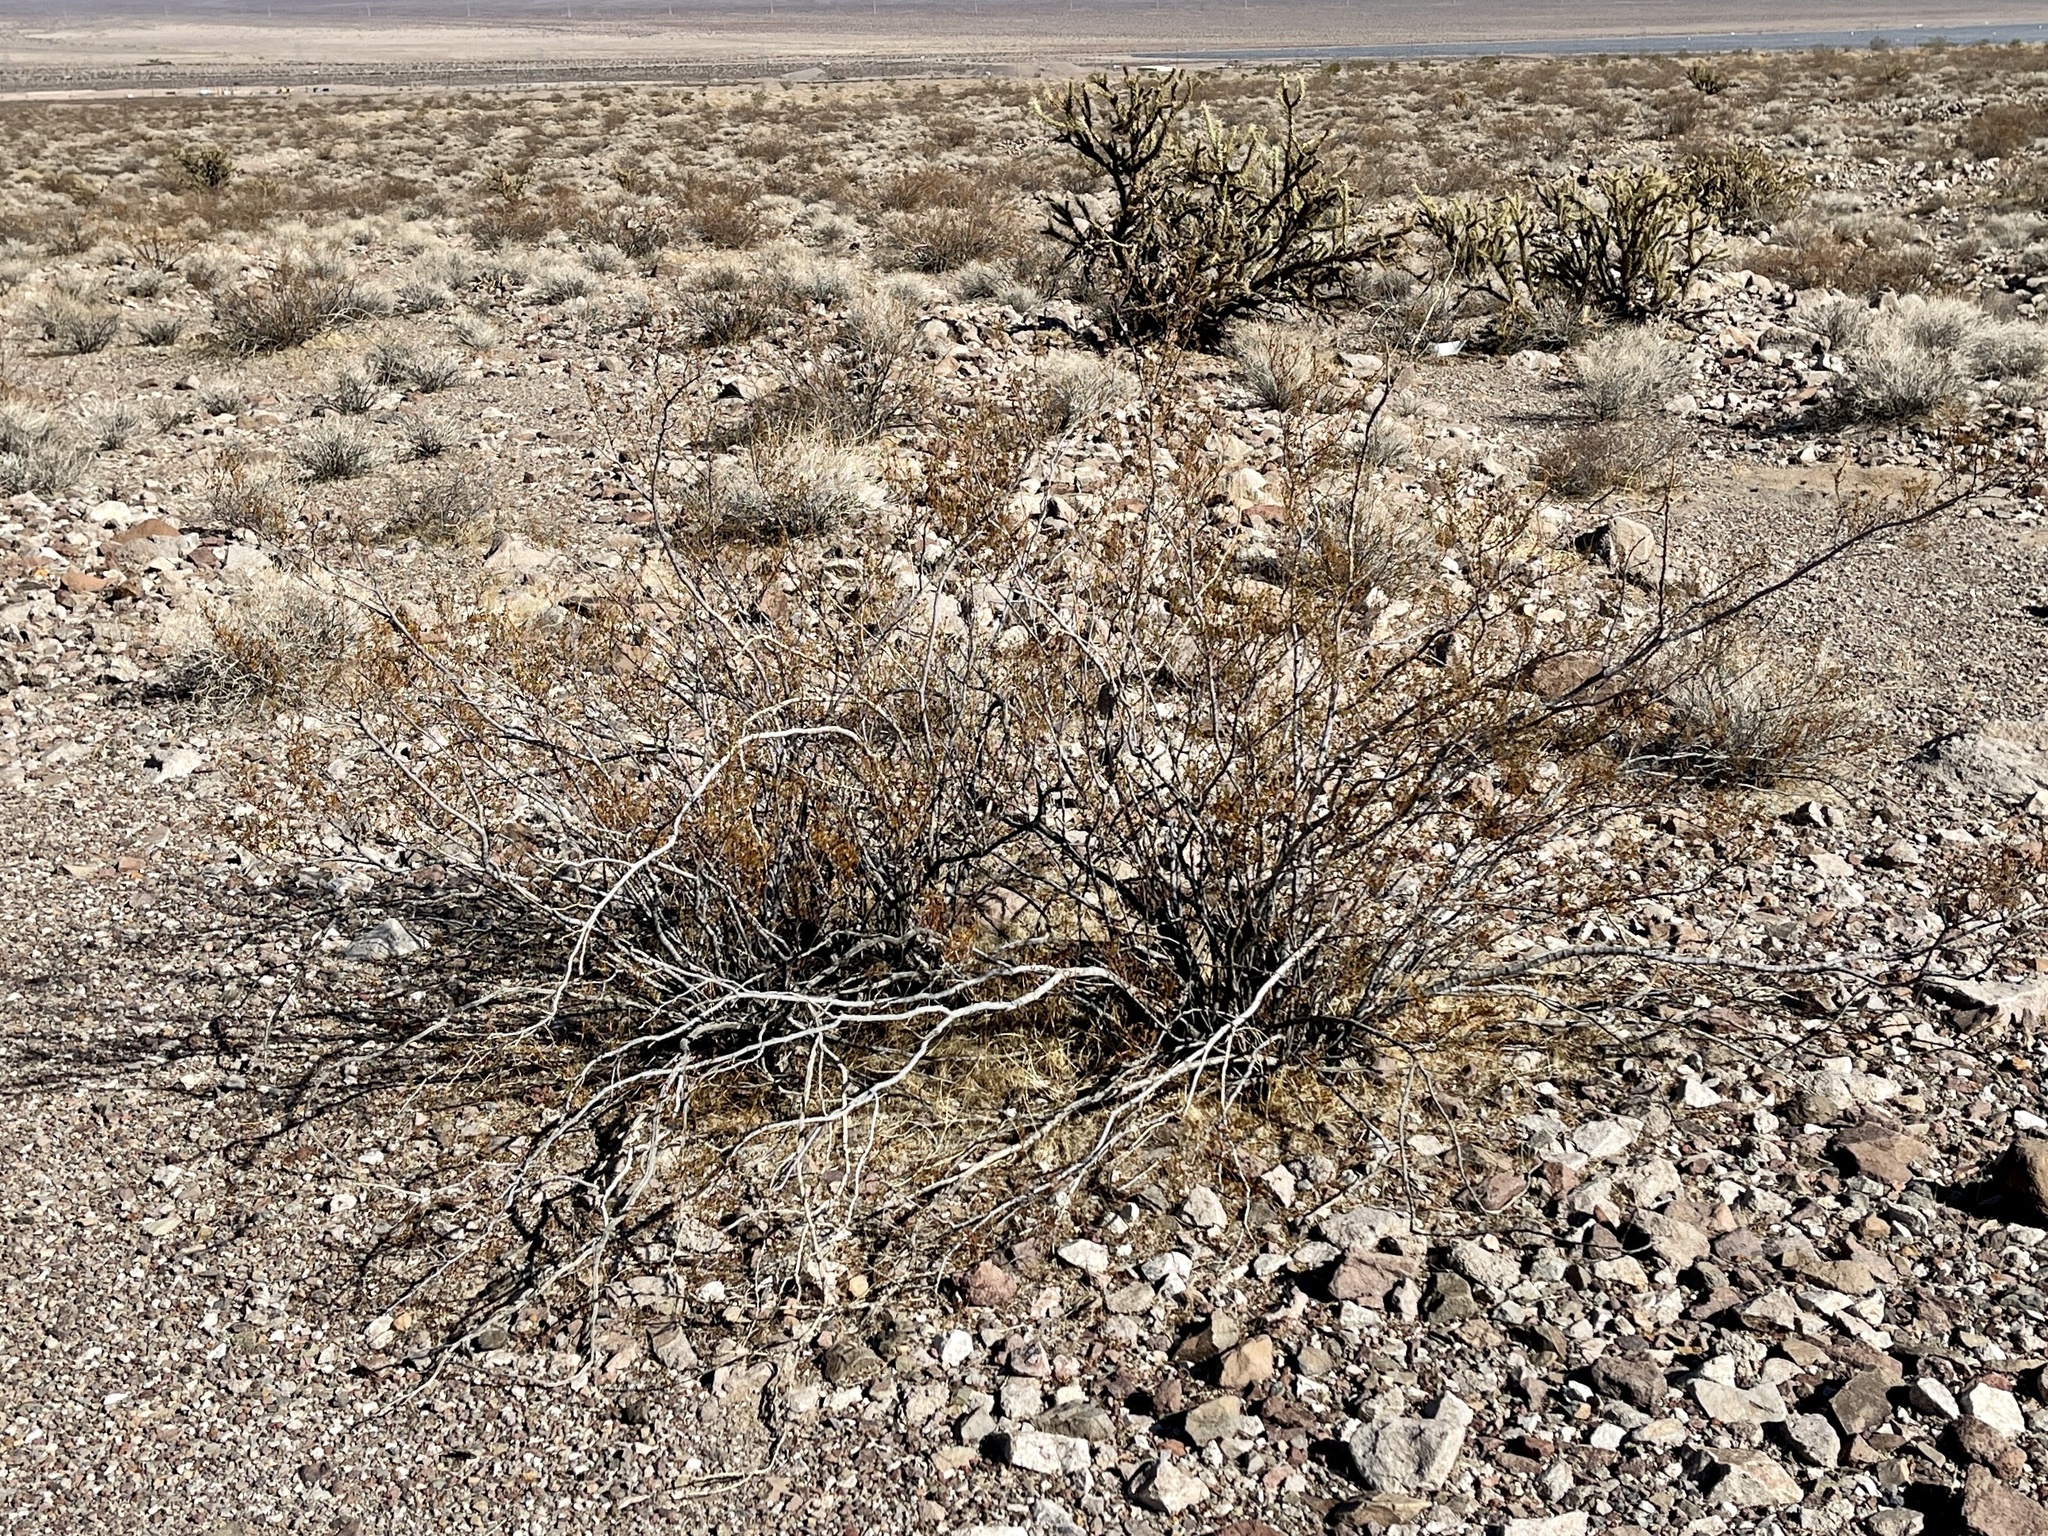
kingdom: Plantae
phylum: Tracheophyta
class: Magnoliopsida
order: Zygophyllales
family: Zygophyllaceae
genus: Larrea
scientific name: Larrea tridentata
